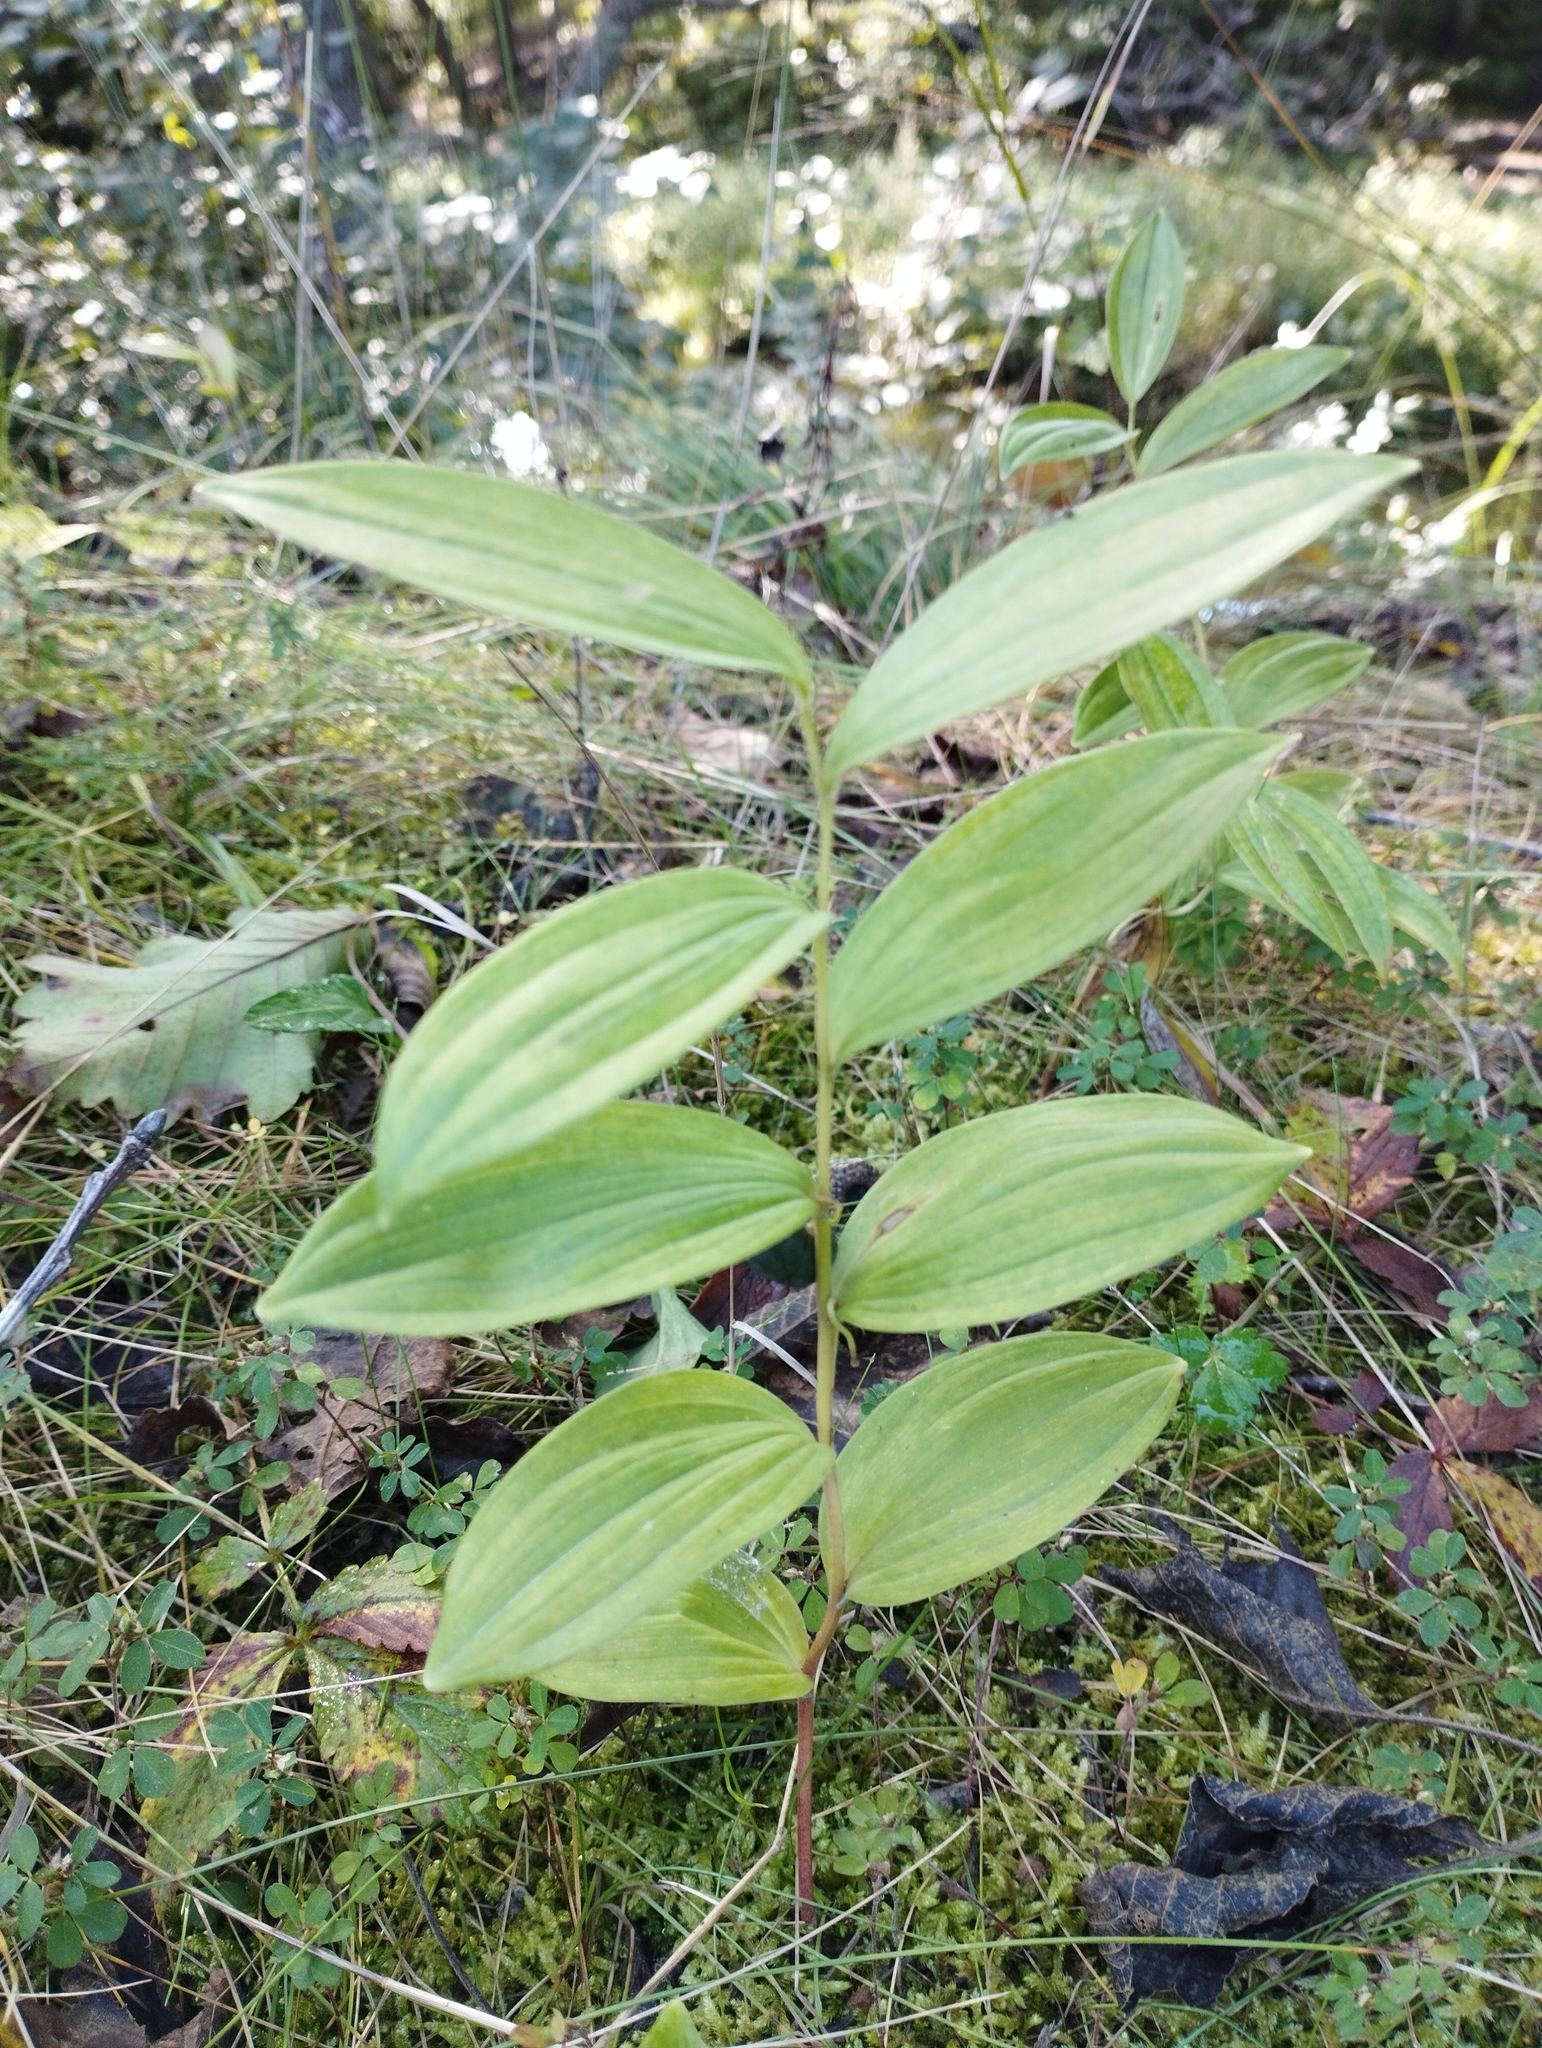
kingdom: Plantae
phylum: Tracheophyta
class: Liliopsida
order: Asparagales
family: Asparagaceae
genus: Polygonatum
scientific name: Polygonatum humile
